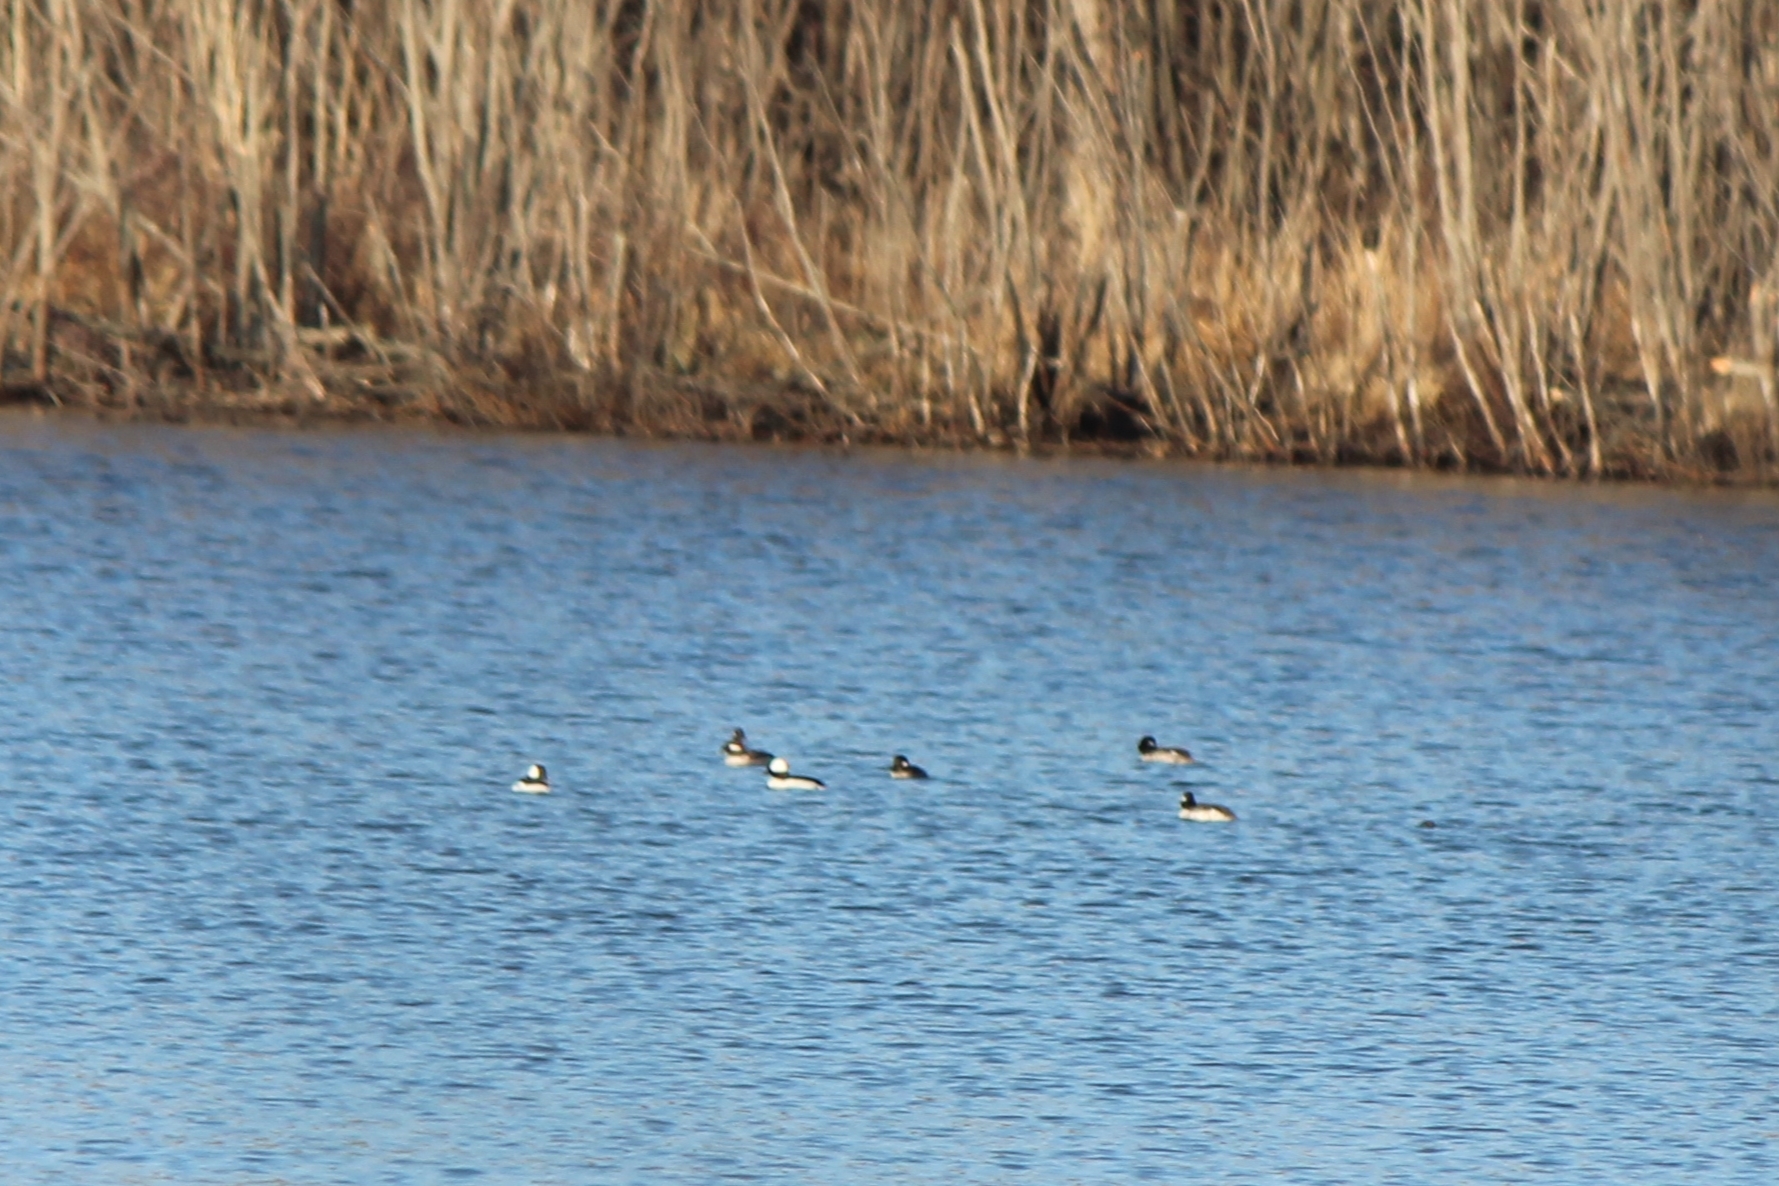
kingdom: Animalia
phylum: Chordata
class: Aves
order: Anseriformes
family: Anatidae
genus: Bucephala
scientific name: Bucephala albeola
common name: Bufflehead
